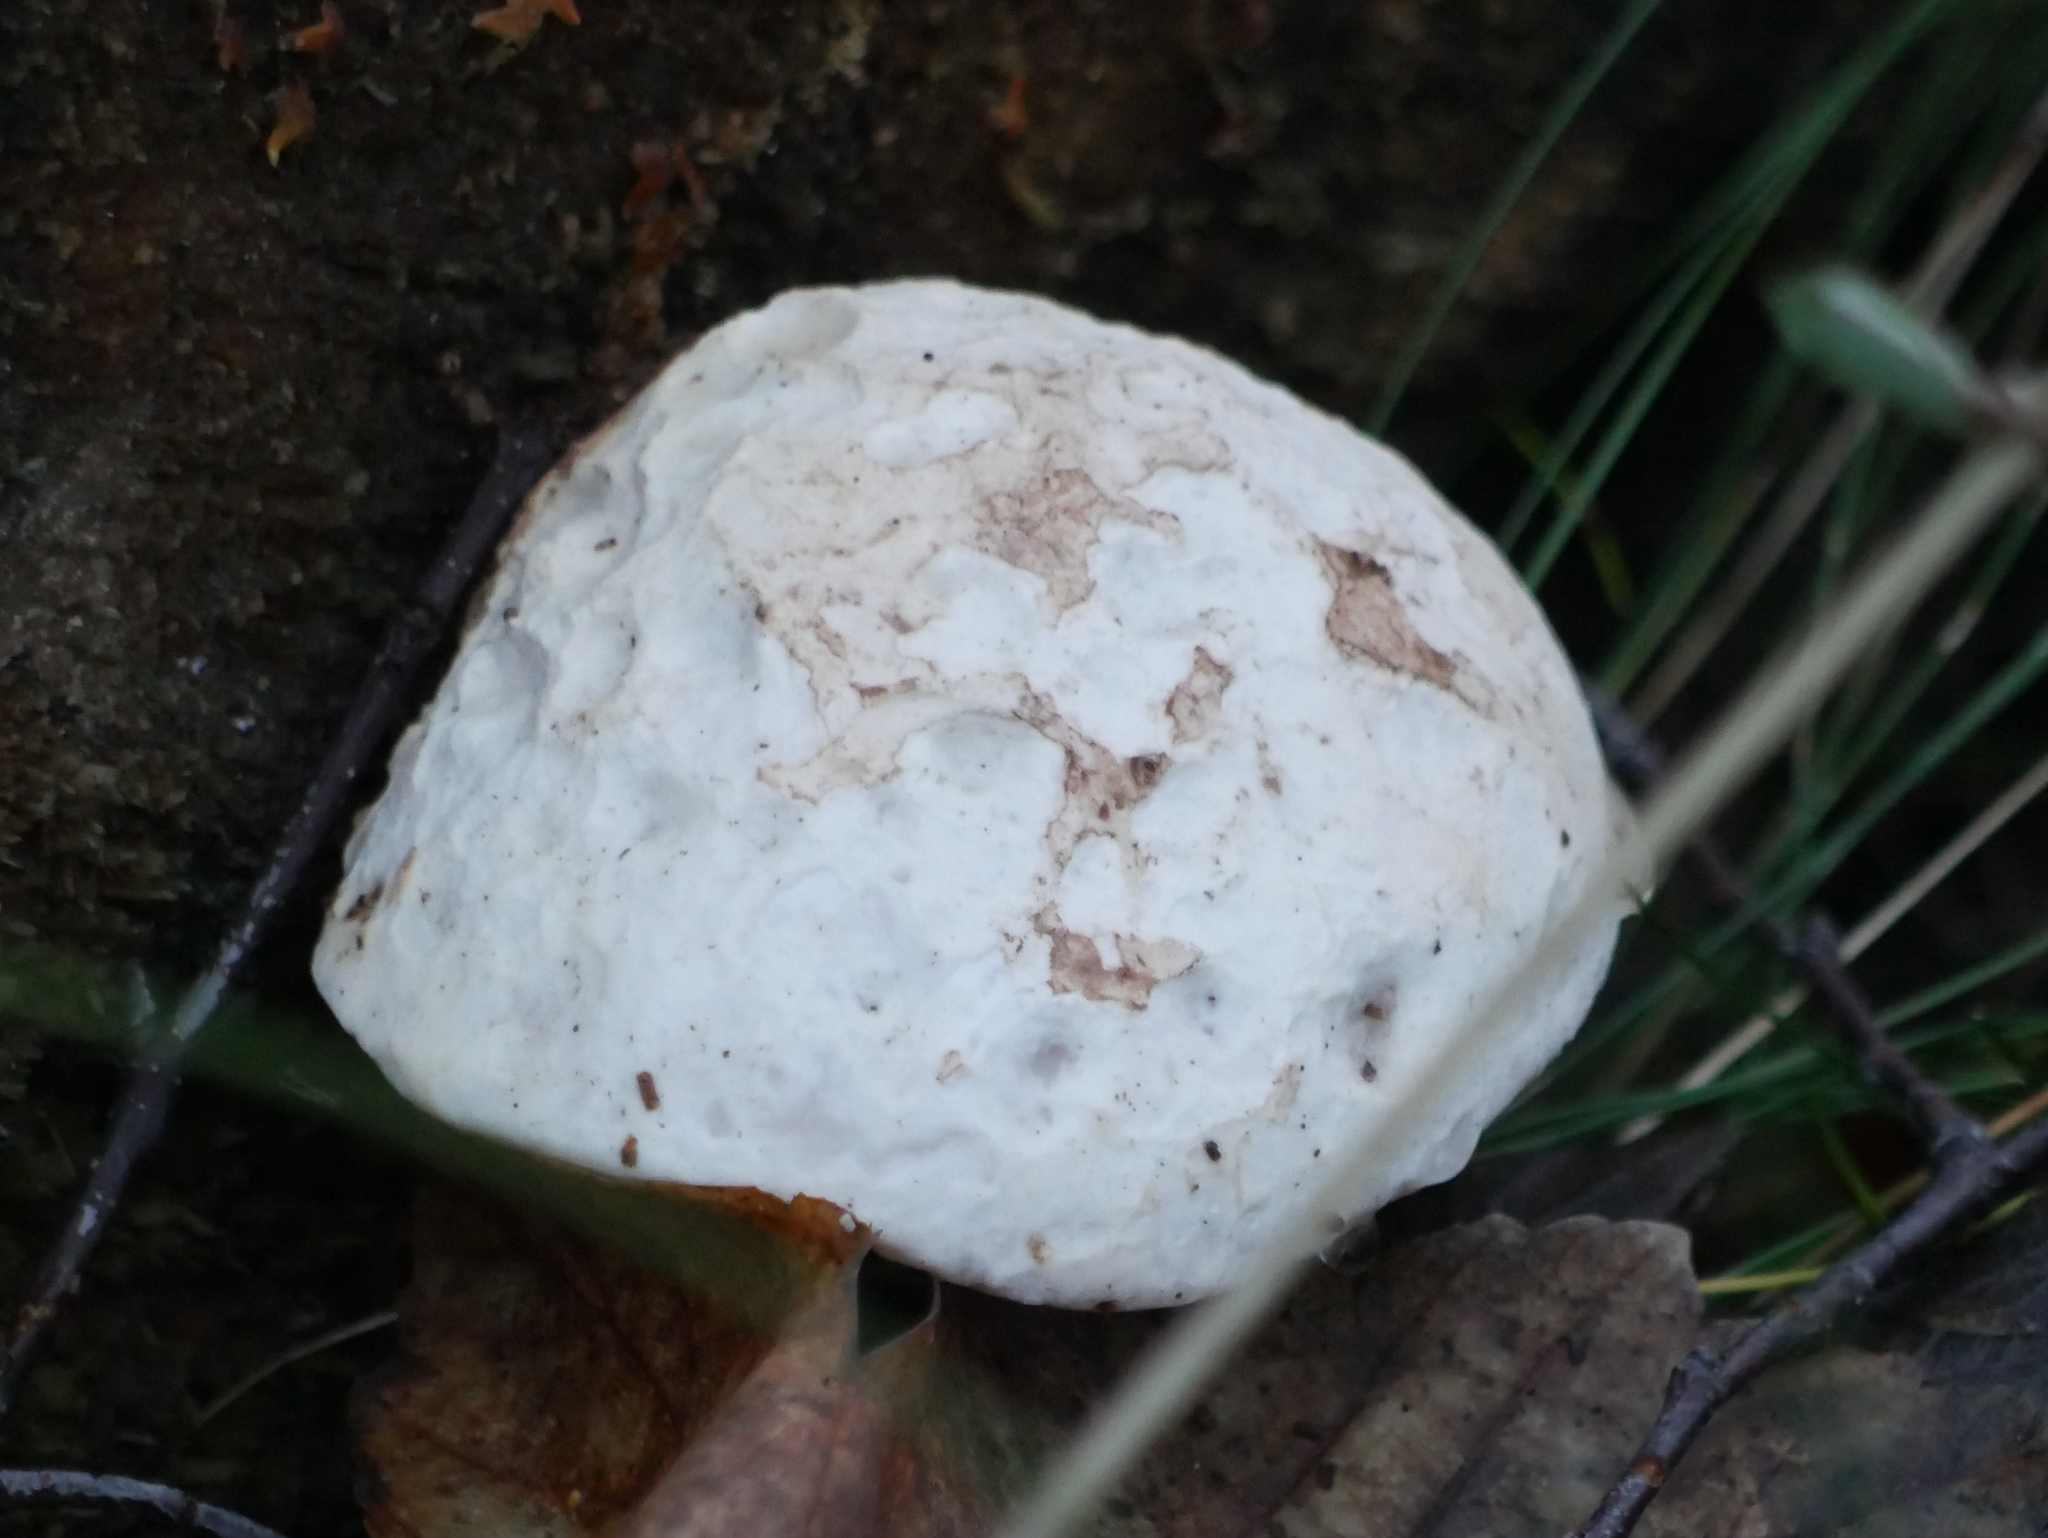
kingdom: Fungi
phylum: Basidiomycota
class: Agaricomycetes
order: Polyporales
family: Fomitopsidaceae
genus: Fomitopsis
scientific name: Fomitopsis betulina
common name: Birch polypore
